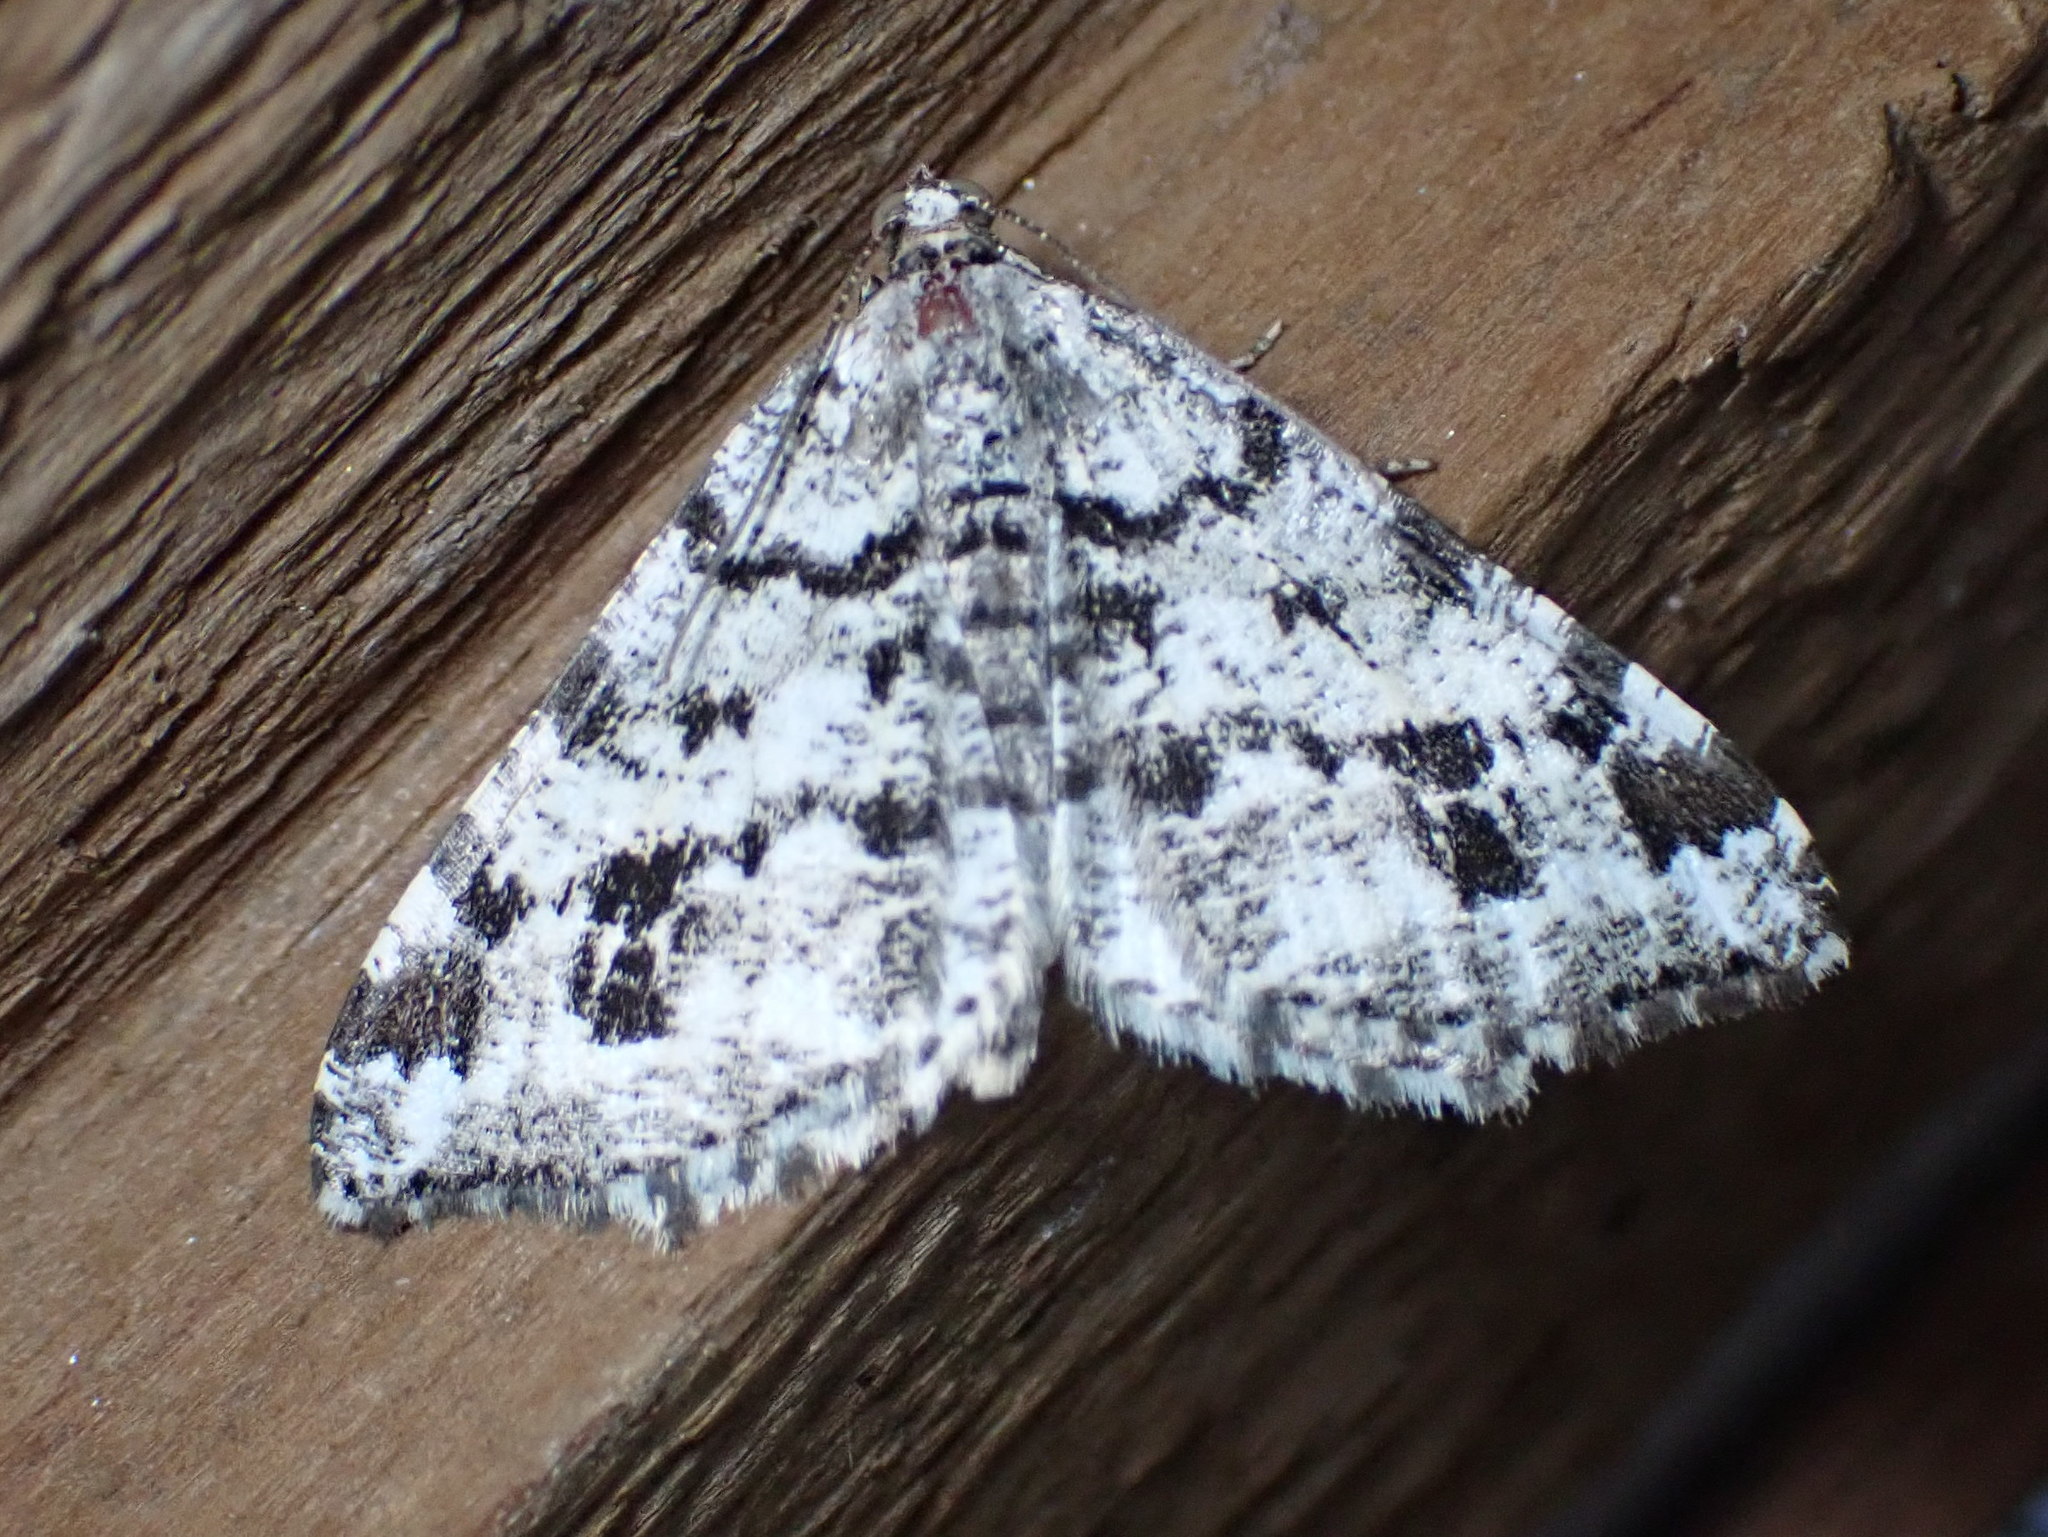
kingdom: Animalia
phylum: Arthropoda
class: Insecta
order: Lepidoptera
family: Geometridae
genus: Macaria
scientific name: Macaria oweni
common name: Owen's angle
